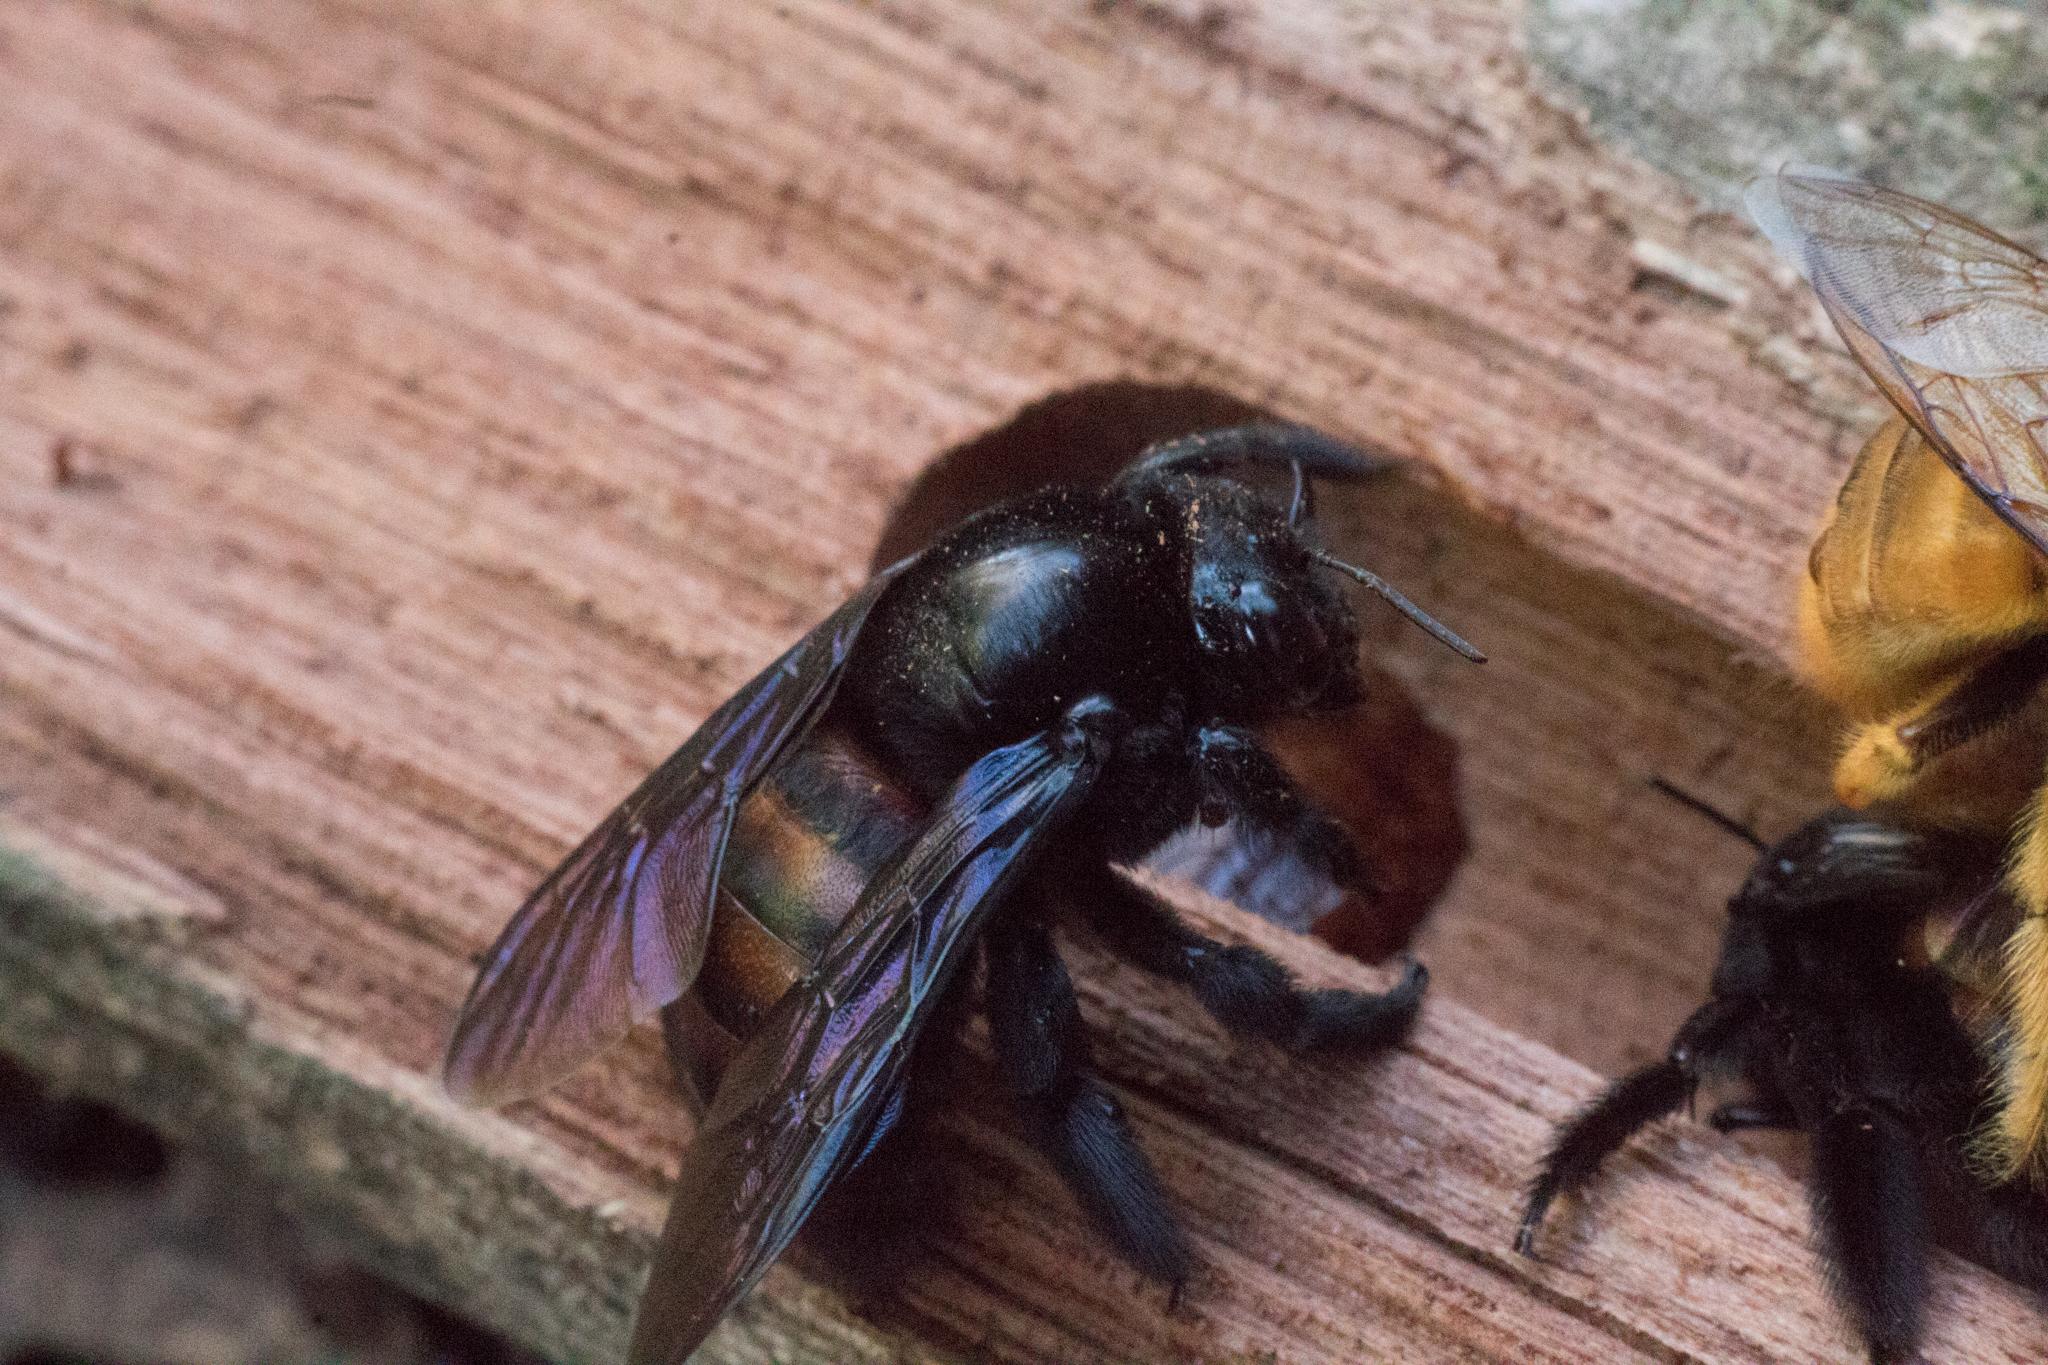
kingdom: Animalia
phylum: Arthropoda
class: Insecta
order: Hymenoptera
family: Apidae
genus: Xylocopa
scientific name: Xylocopa nigrocincta
